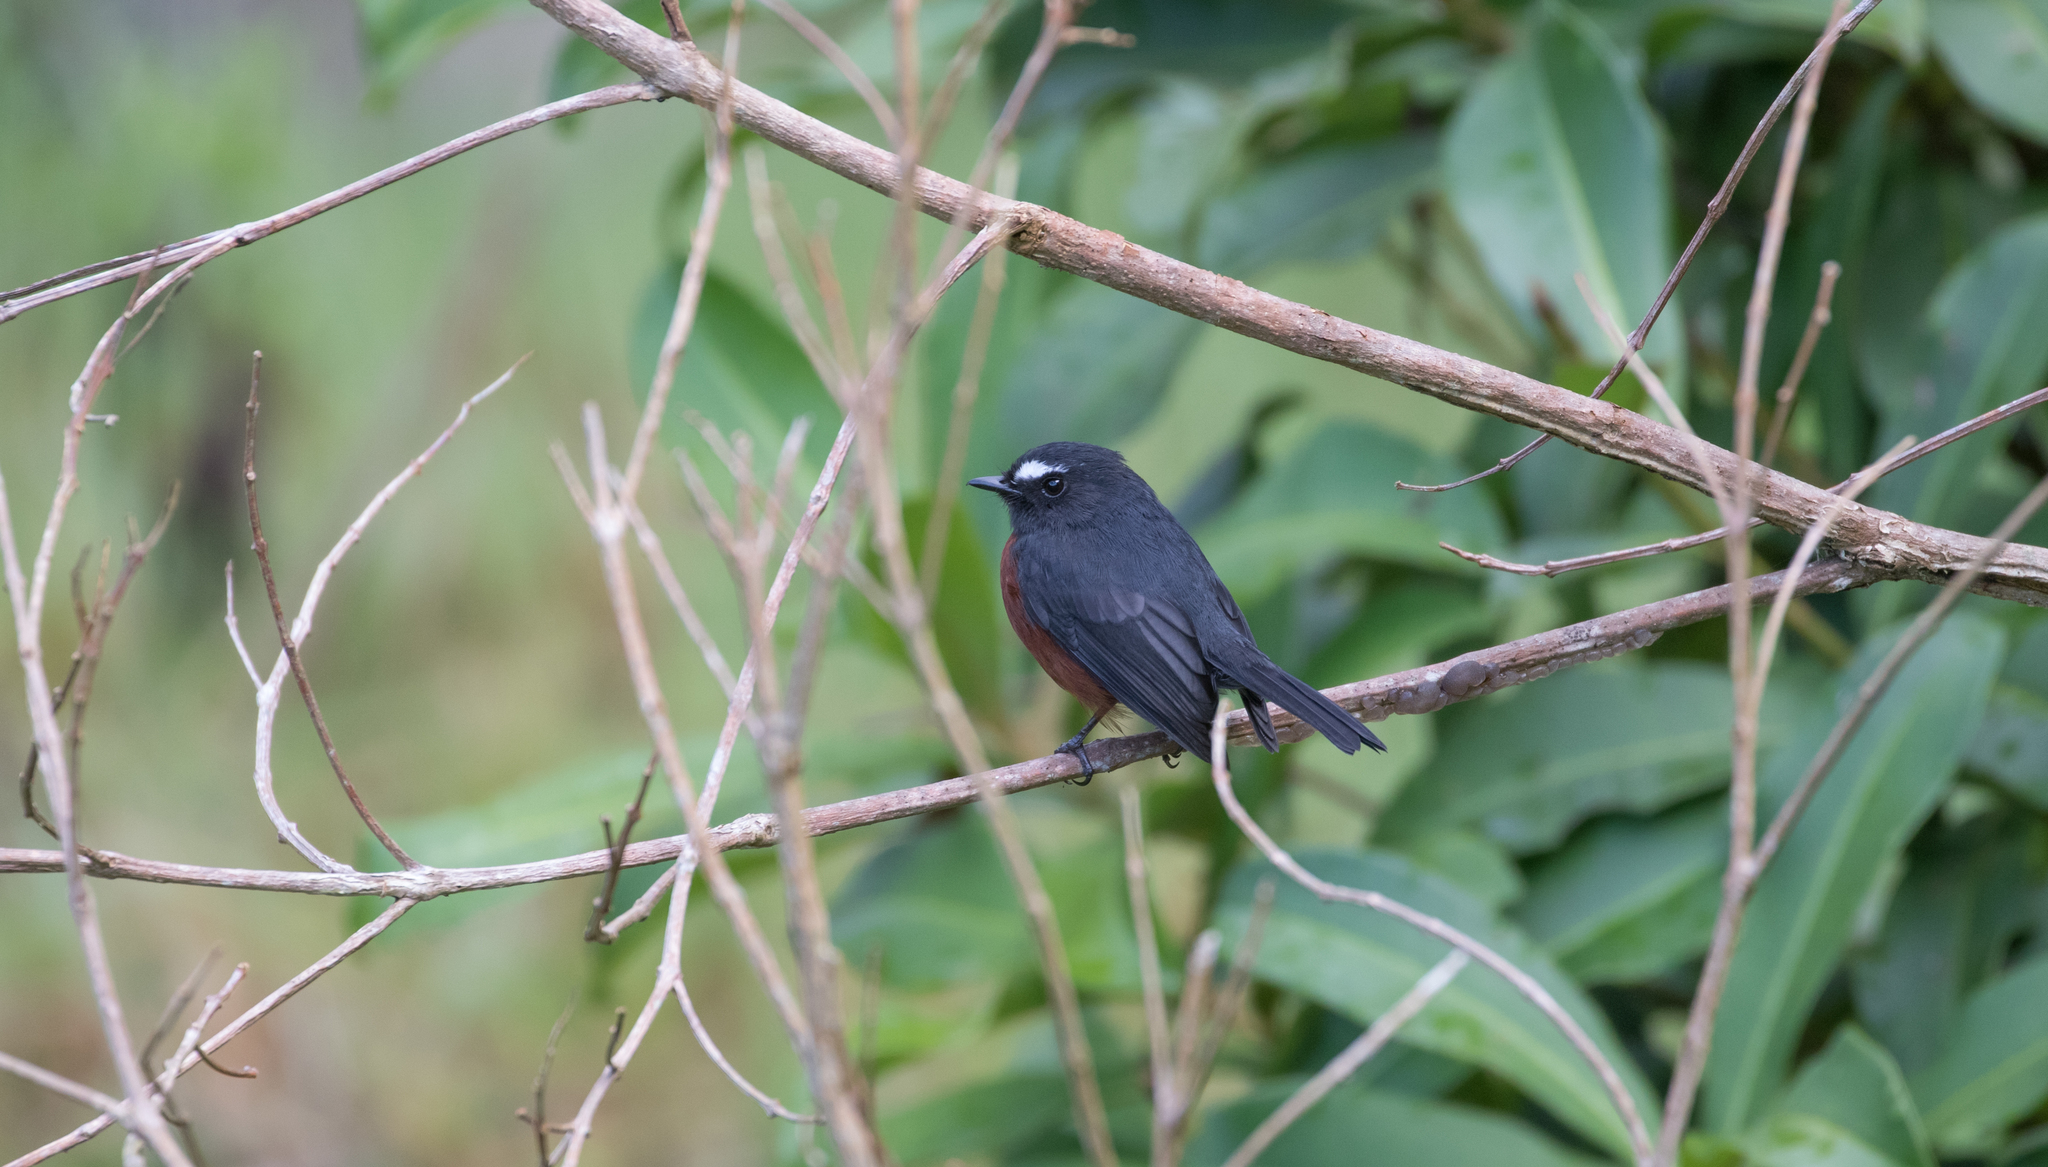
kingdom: Animalia
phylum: Chordata
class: Aves
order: Passeriformes
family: Tyrannidae
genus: Ochthoeca
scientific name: Ochthoeca cinnamomeiventris
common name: Slaty-backed chat-tyrant
